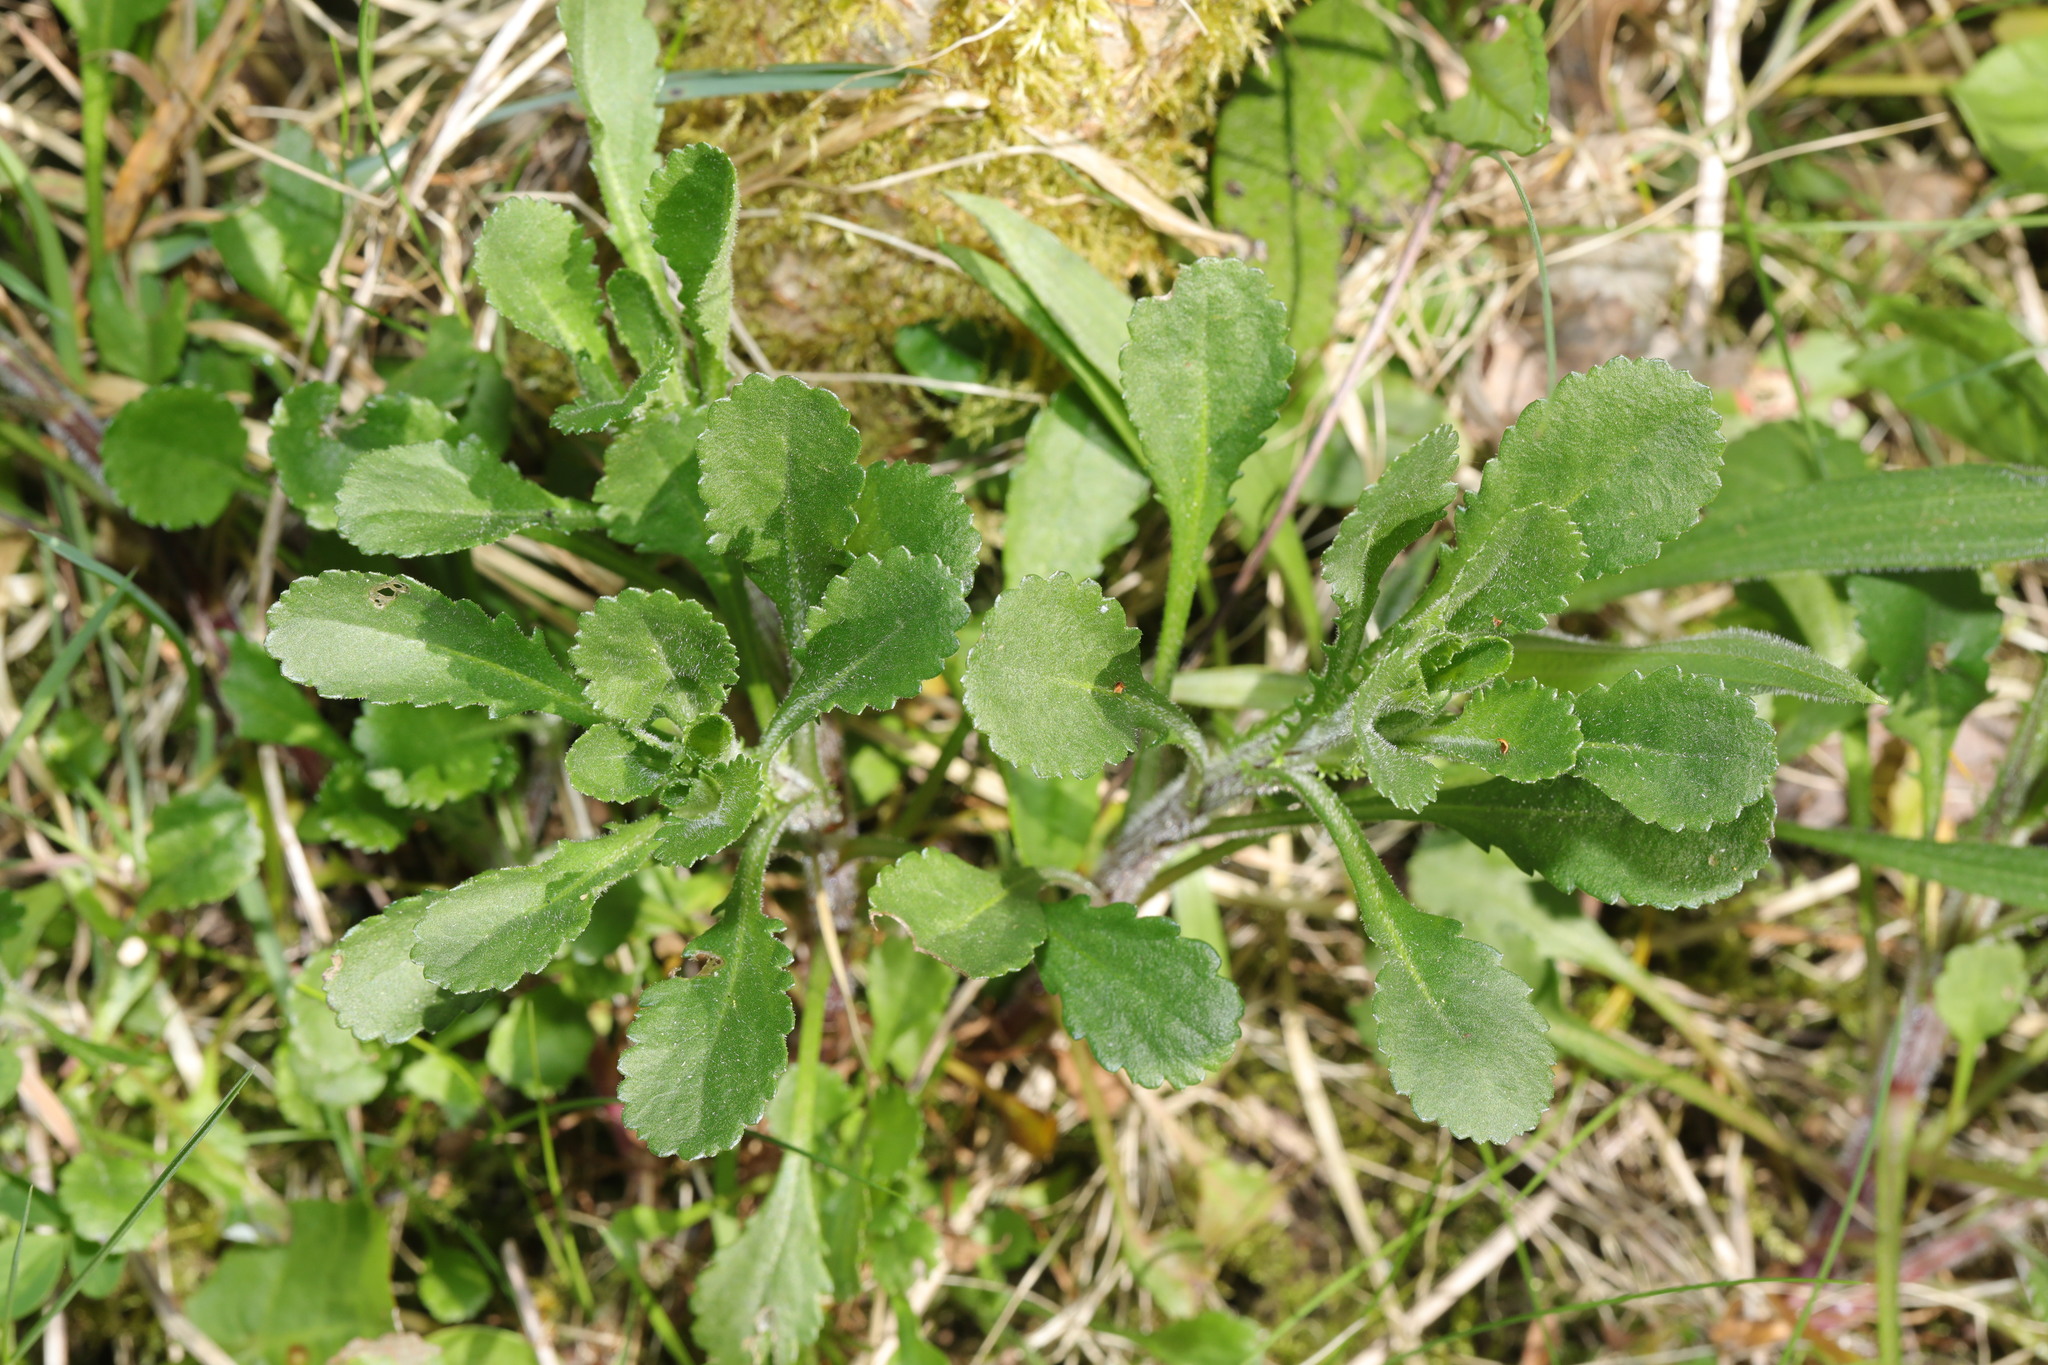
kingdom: Plantae
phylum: Tracheophyta
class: Magnoliopsida
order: Asterales
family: Asteraceae
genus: Leucanthemum
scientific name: Leucanthemum vulgare
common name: Oxeye daisy
